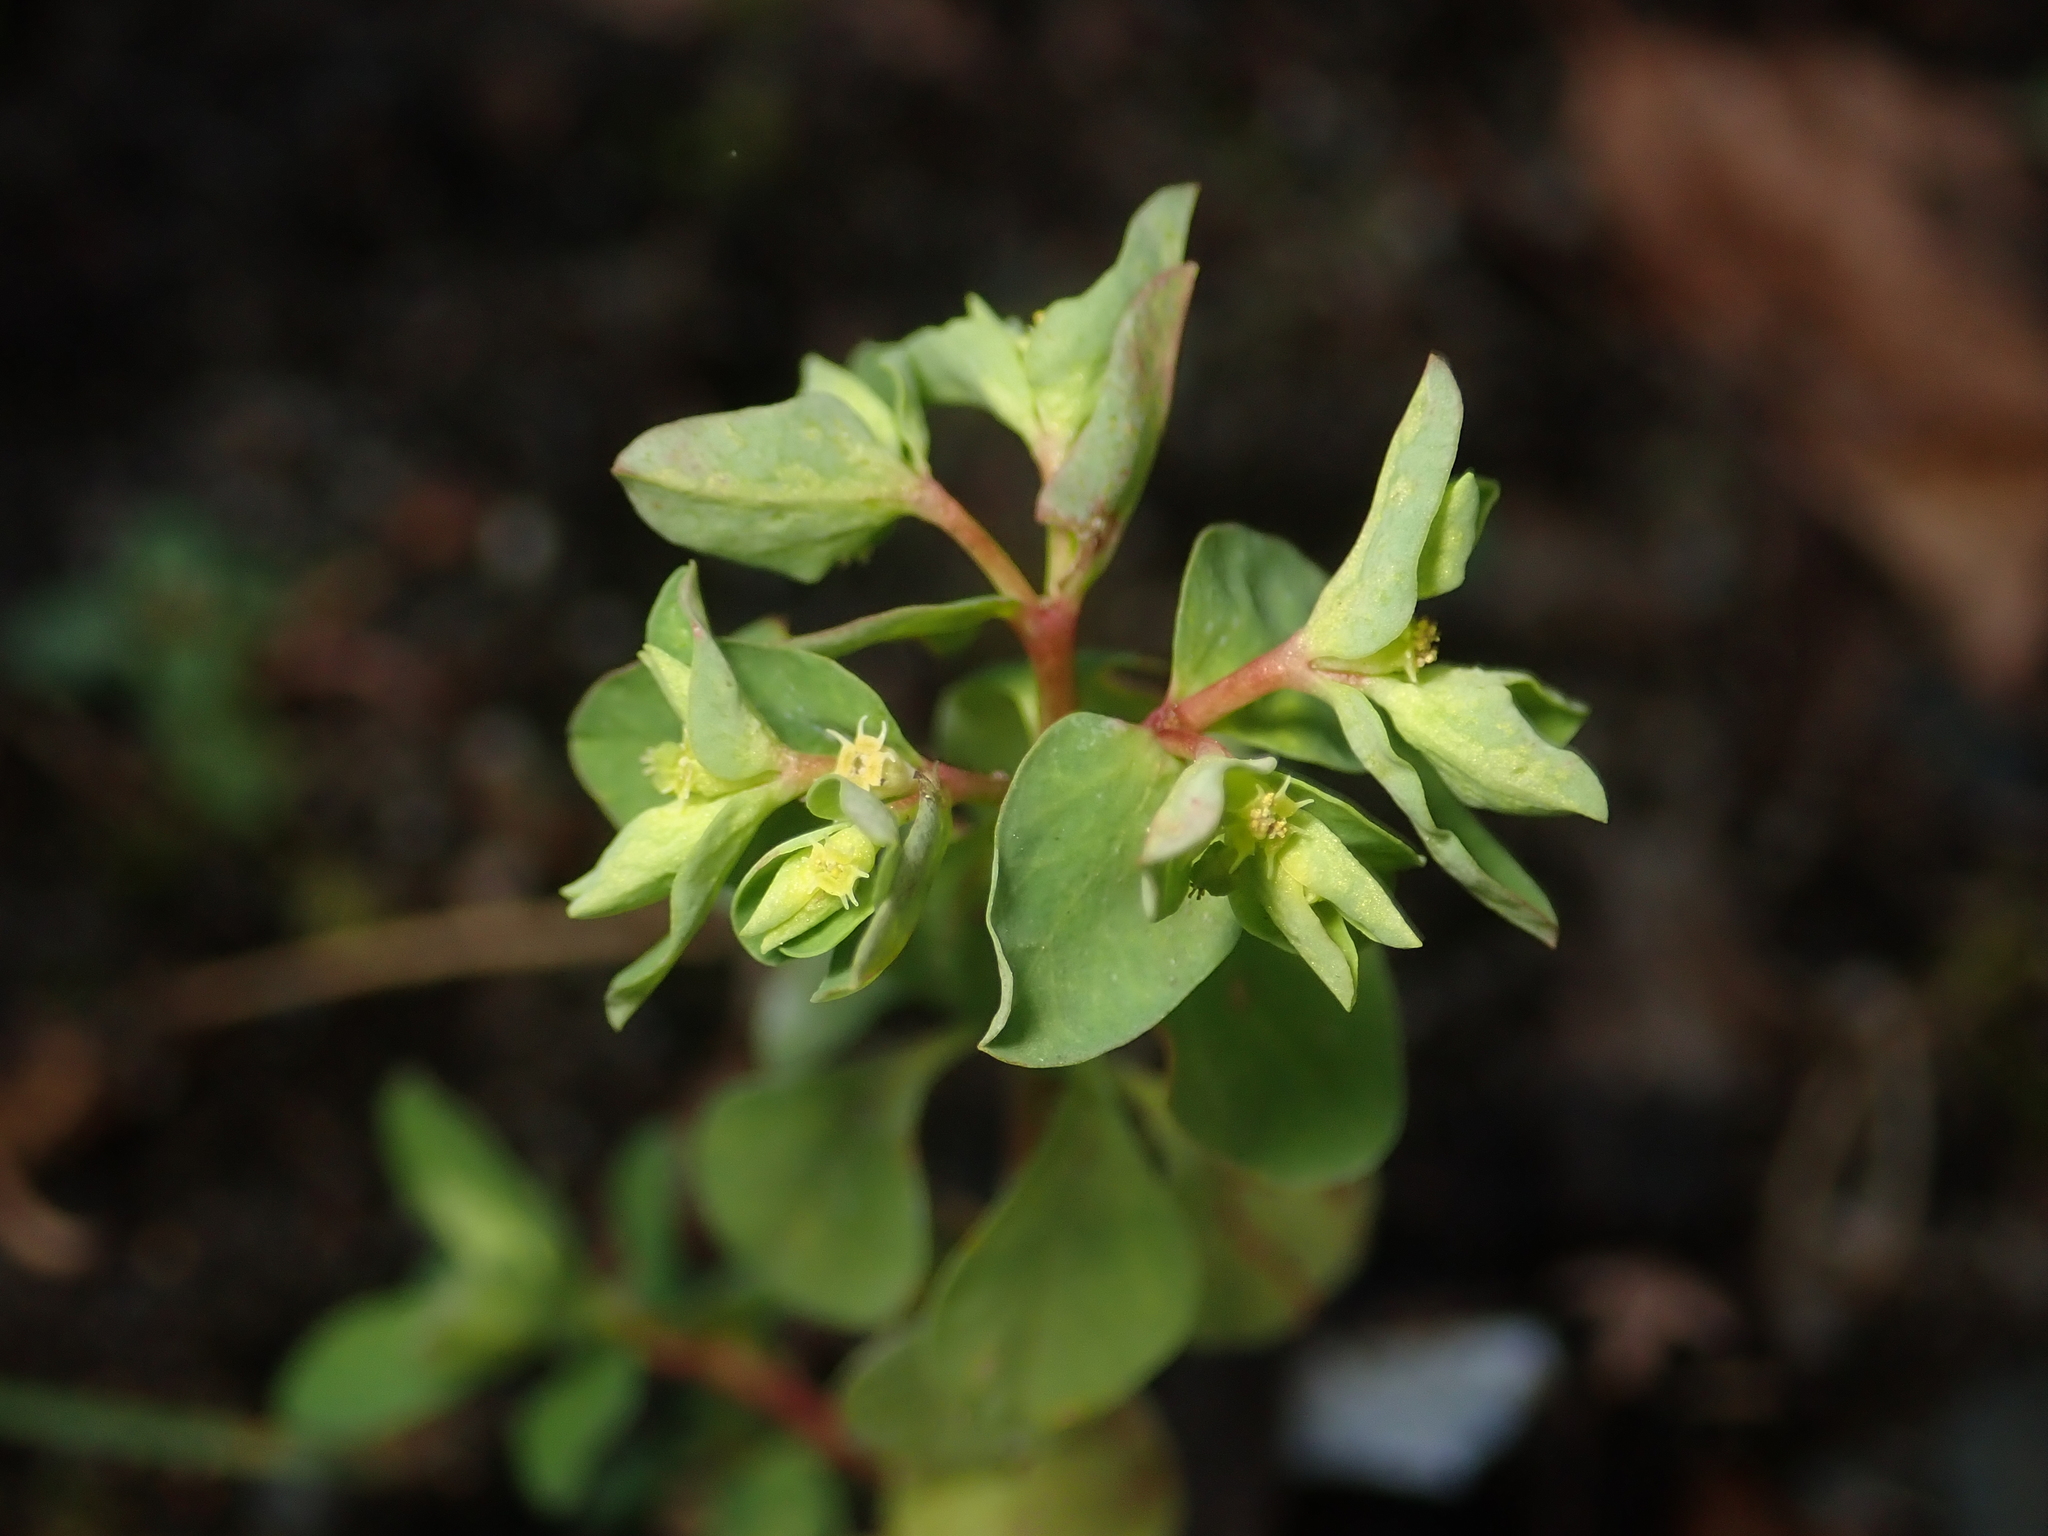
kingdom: Plantae
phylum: Tracheophyta
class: Magnoliopsida
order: Malpighiales
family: Euphorbiaceae
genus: Euphorbia
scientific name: Euphorbia peplus
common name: Petty spurge
